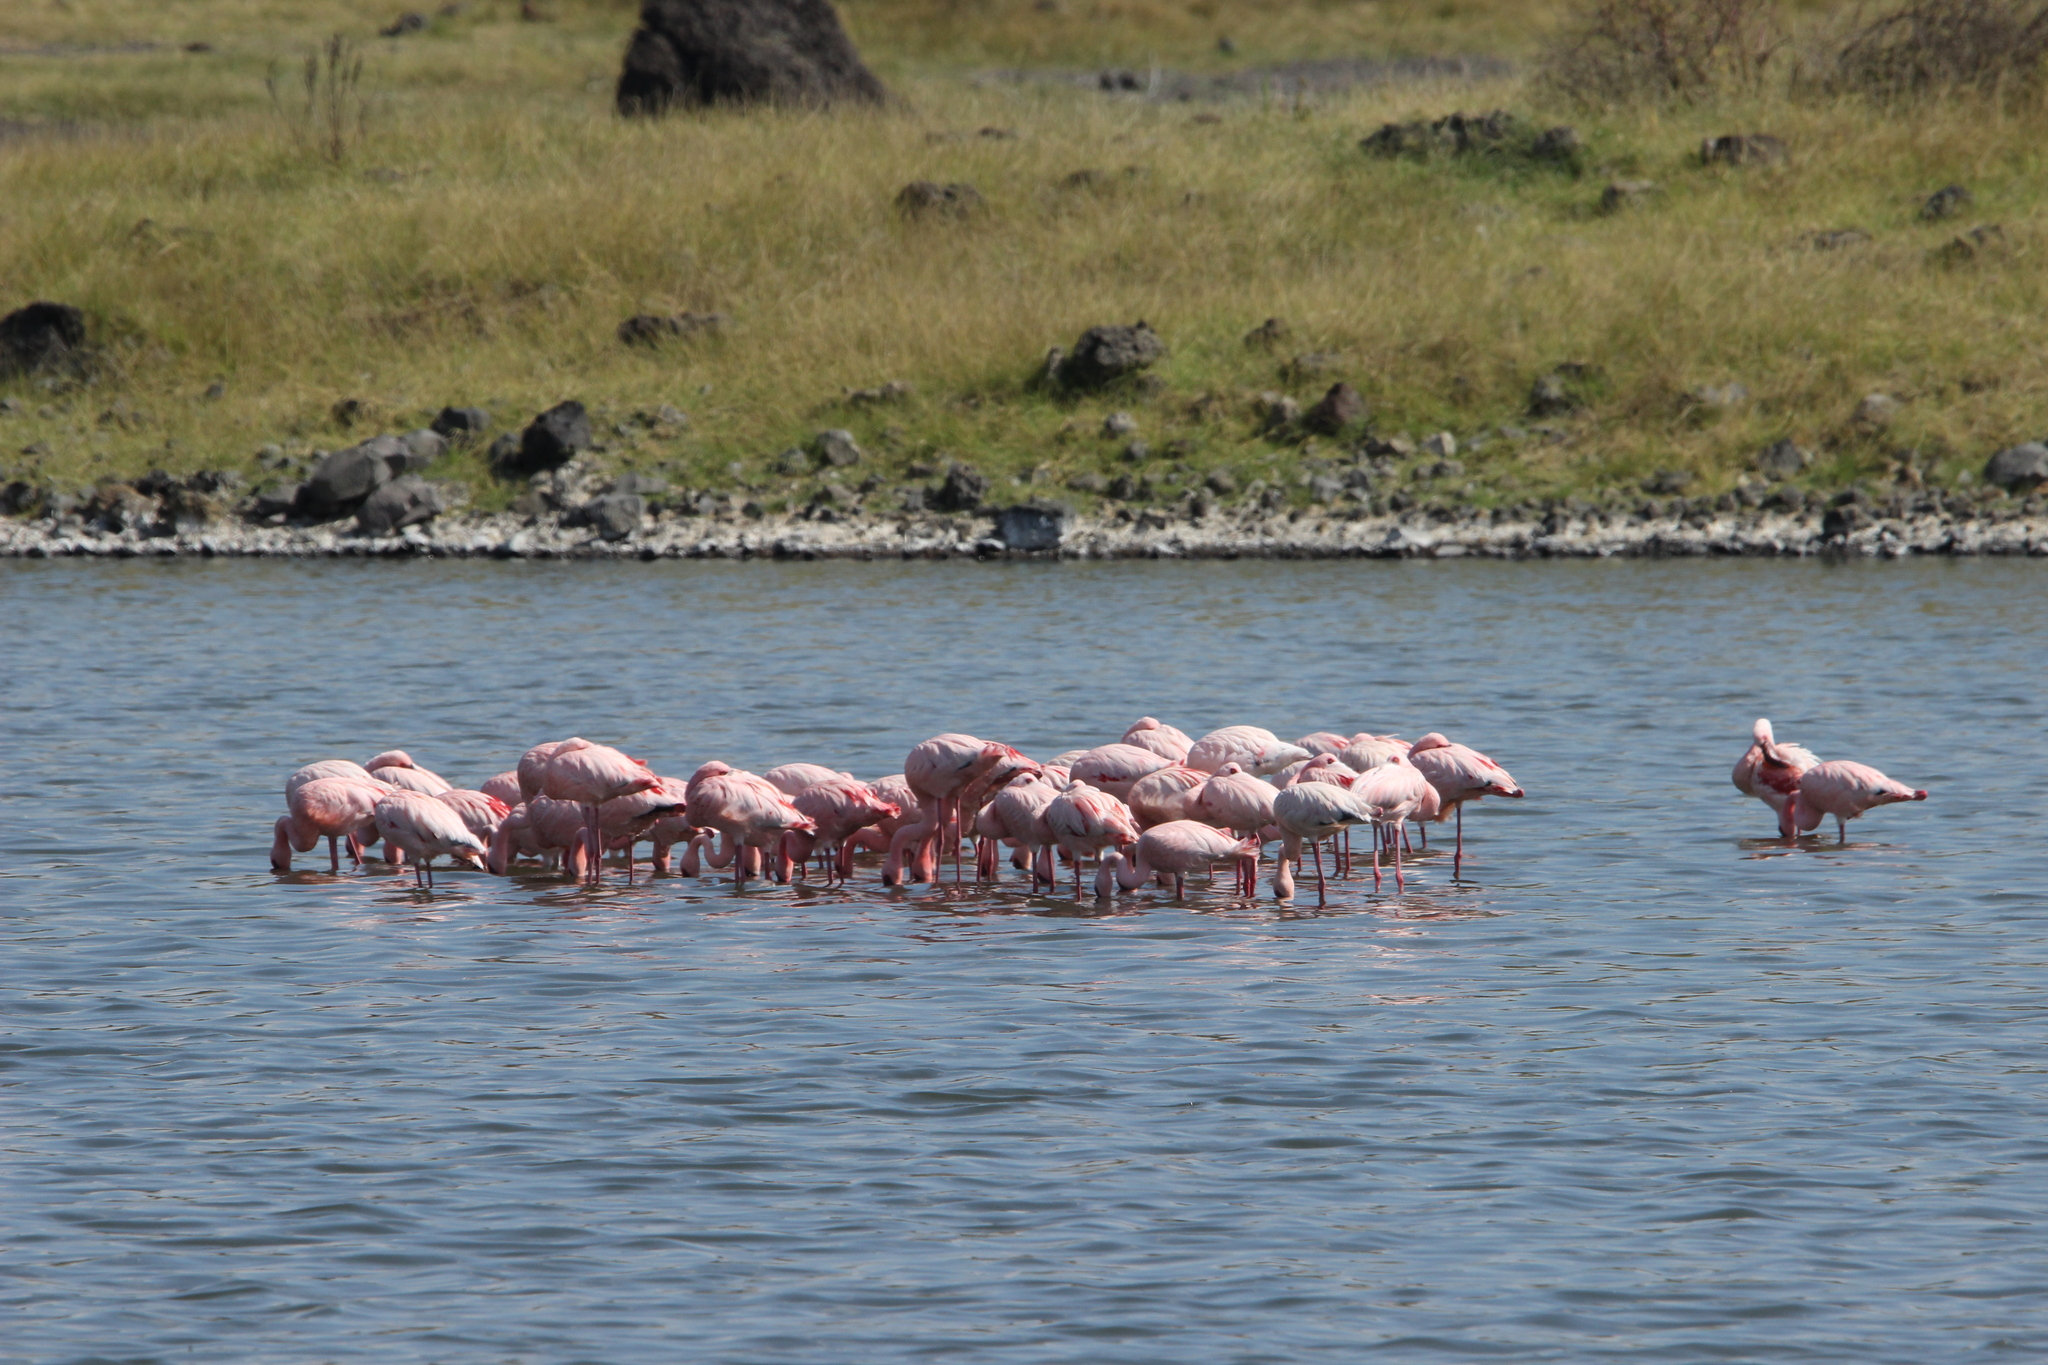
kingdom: Animalia
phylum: Chordata
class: Aves
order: Phoenicopteriformes
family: Phoenicopteridae
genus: Phoeniconaias
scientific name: Phoeniconaias minor
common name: Lesser flamingo
